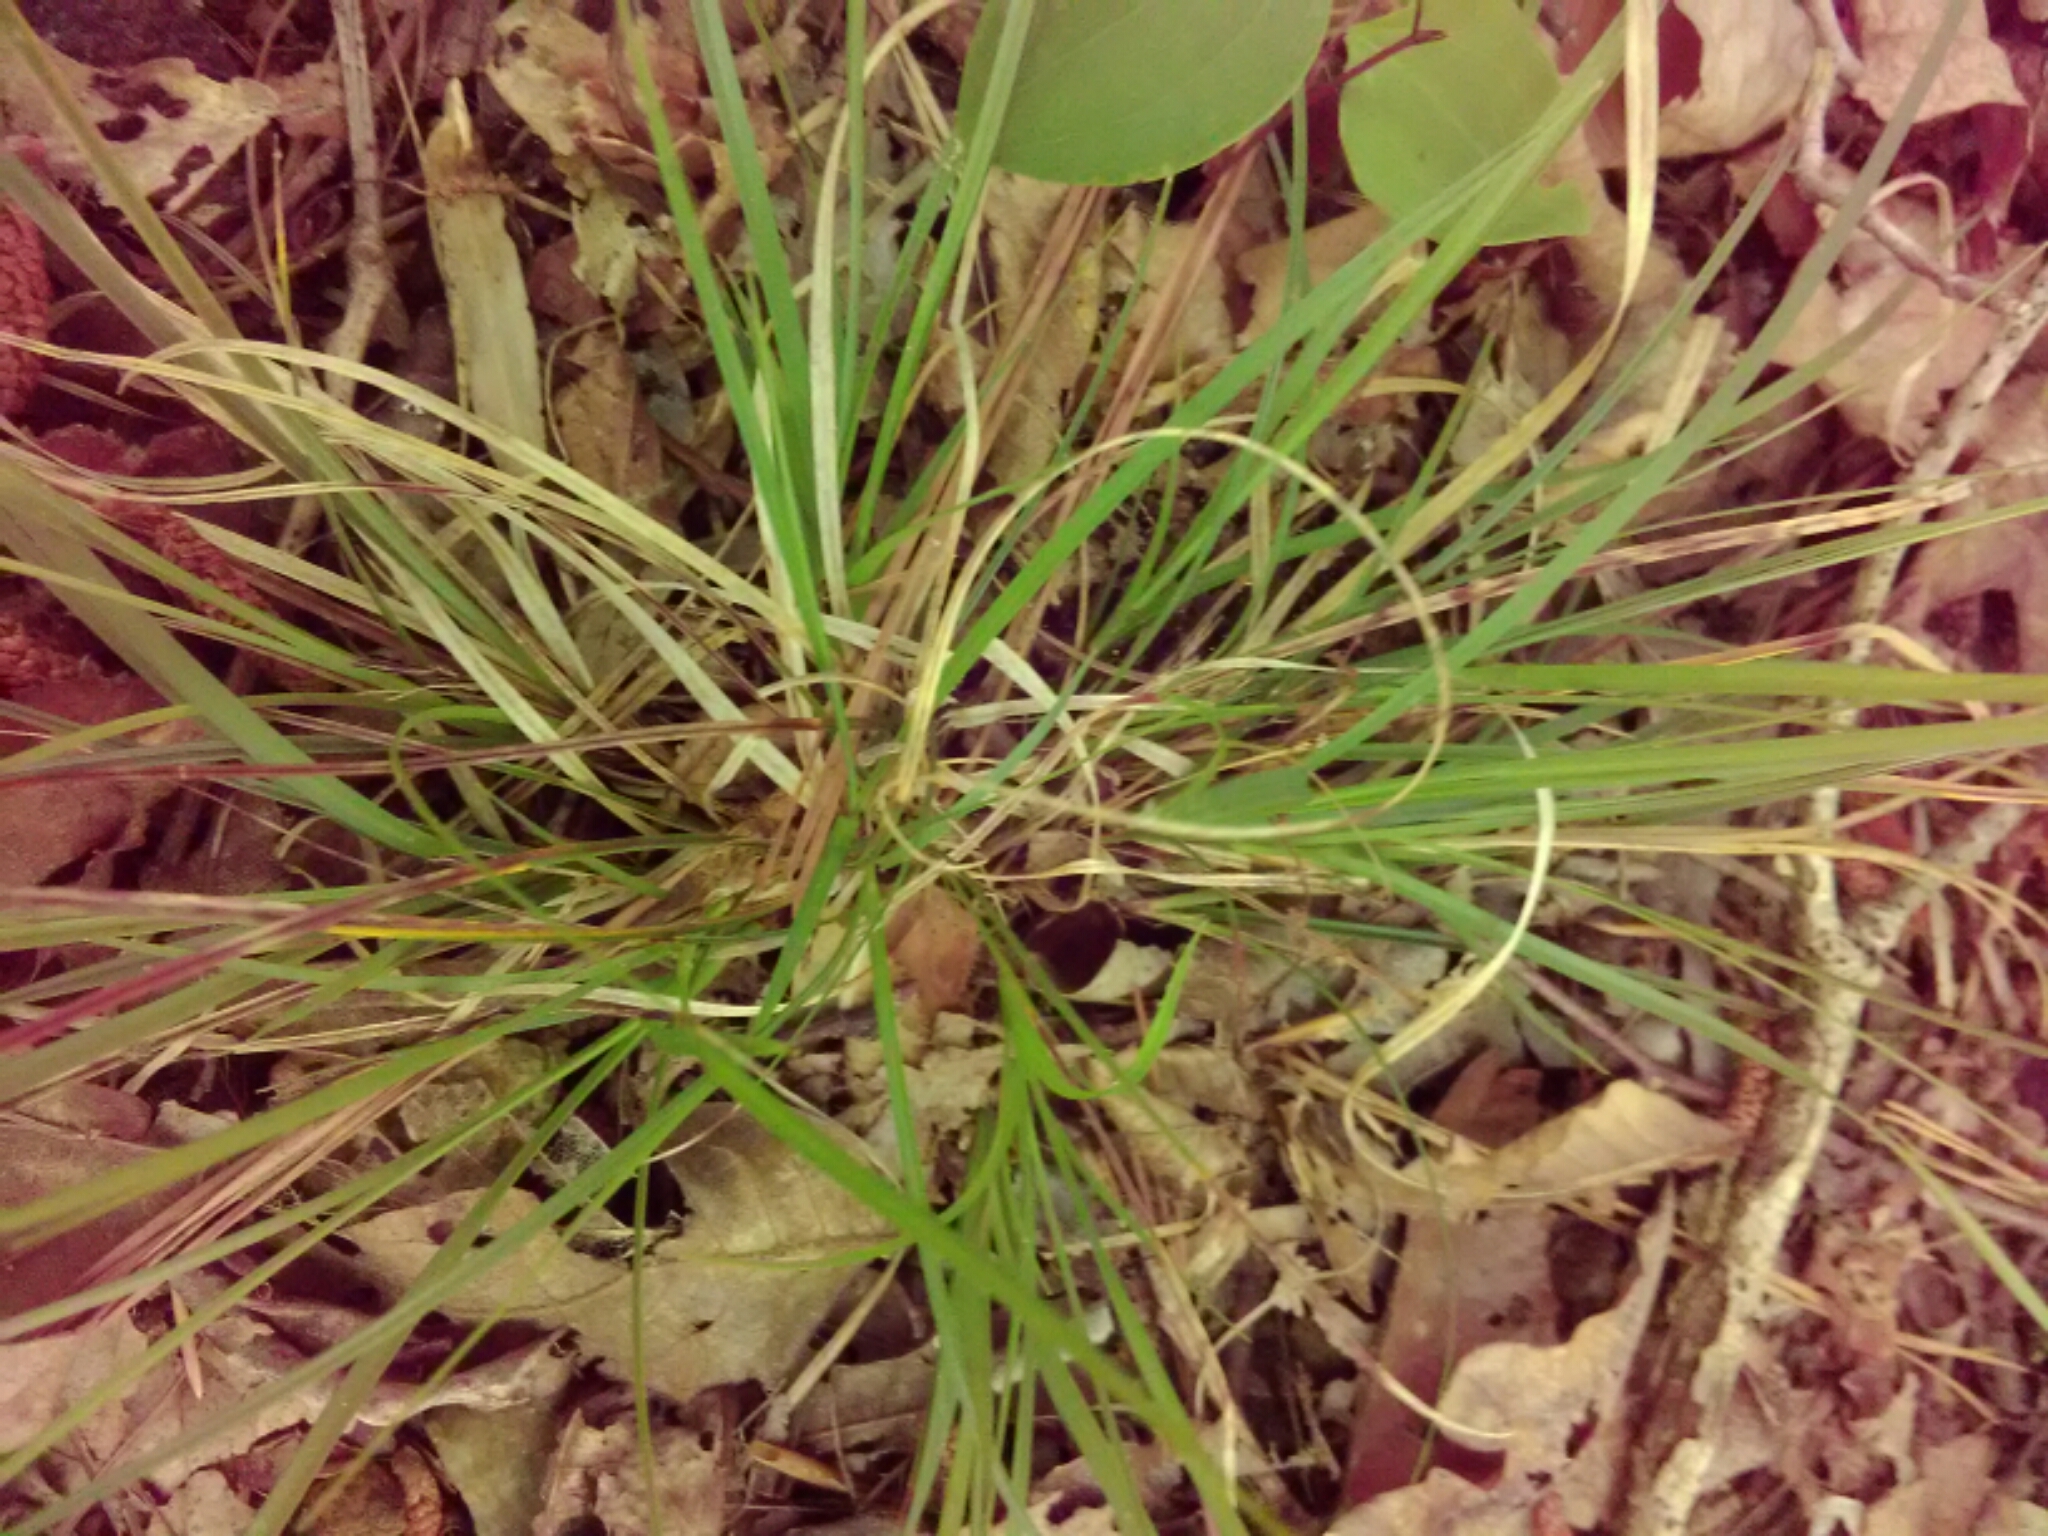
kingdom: Plantae
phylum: Tracheophyta
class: Liliopsida
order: Poales
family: Poaceae
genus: Danthonia
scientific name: Danthonia spicata
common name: Common wild oatgrass
